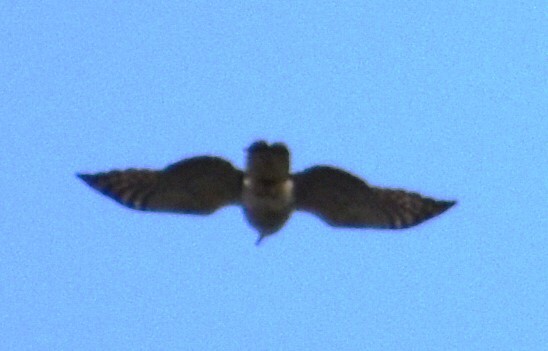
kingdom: Animalia
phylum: Chordata
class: Aves
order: Accipitriformes
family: Accipitridae
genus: Chondrohierax
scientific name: Chondrohierax uncinatus
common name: Hook-billed kite
